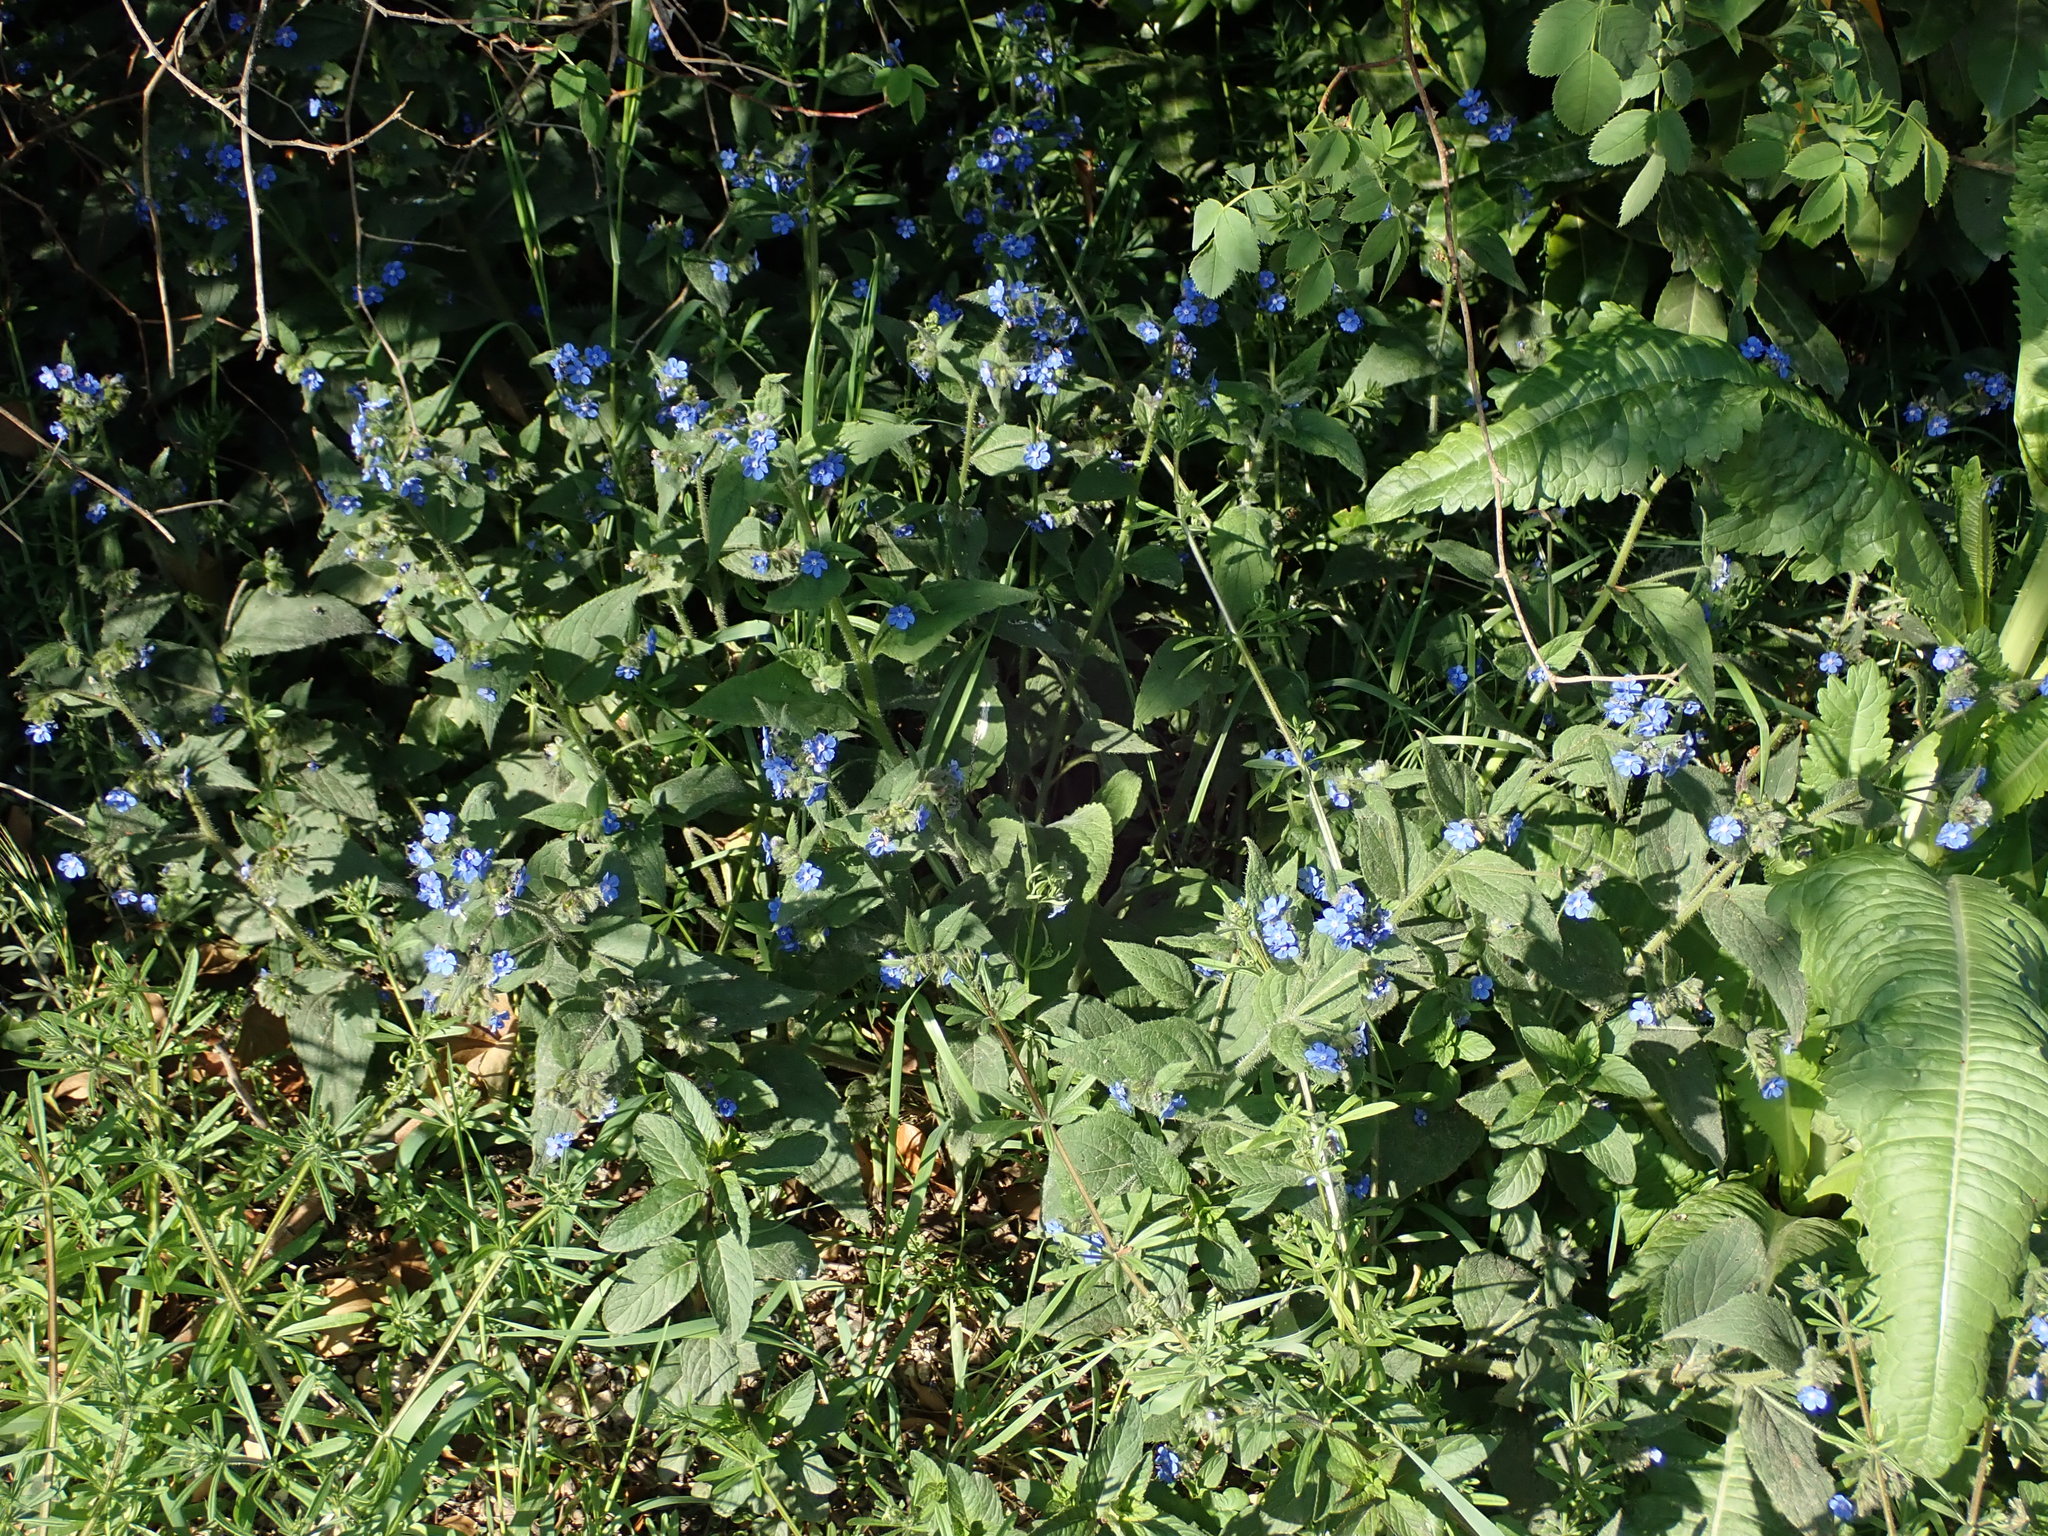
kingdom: Plantae
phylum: Tracheophyta
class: Magnoliopsida
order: Boraginales
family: Boraginaceae
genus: Pentaglottis
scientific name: Pentaglottis sempervirens
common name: Green alkanet
